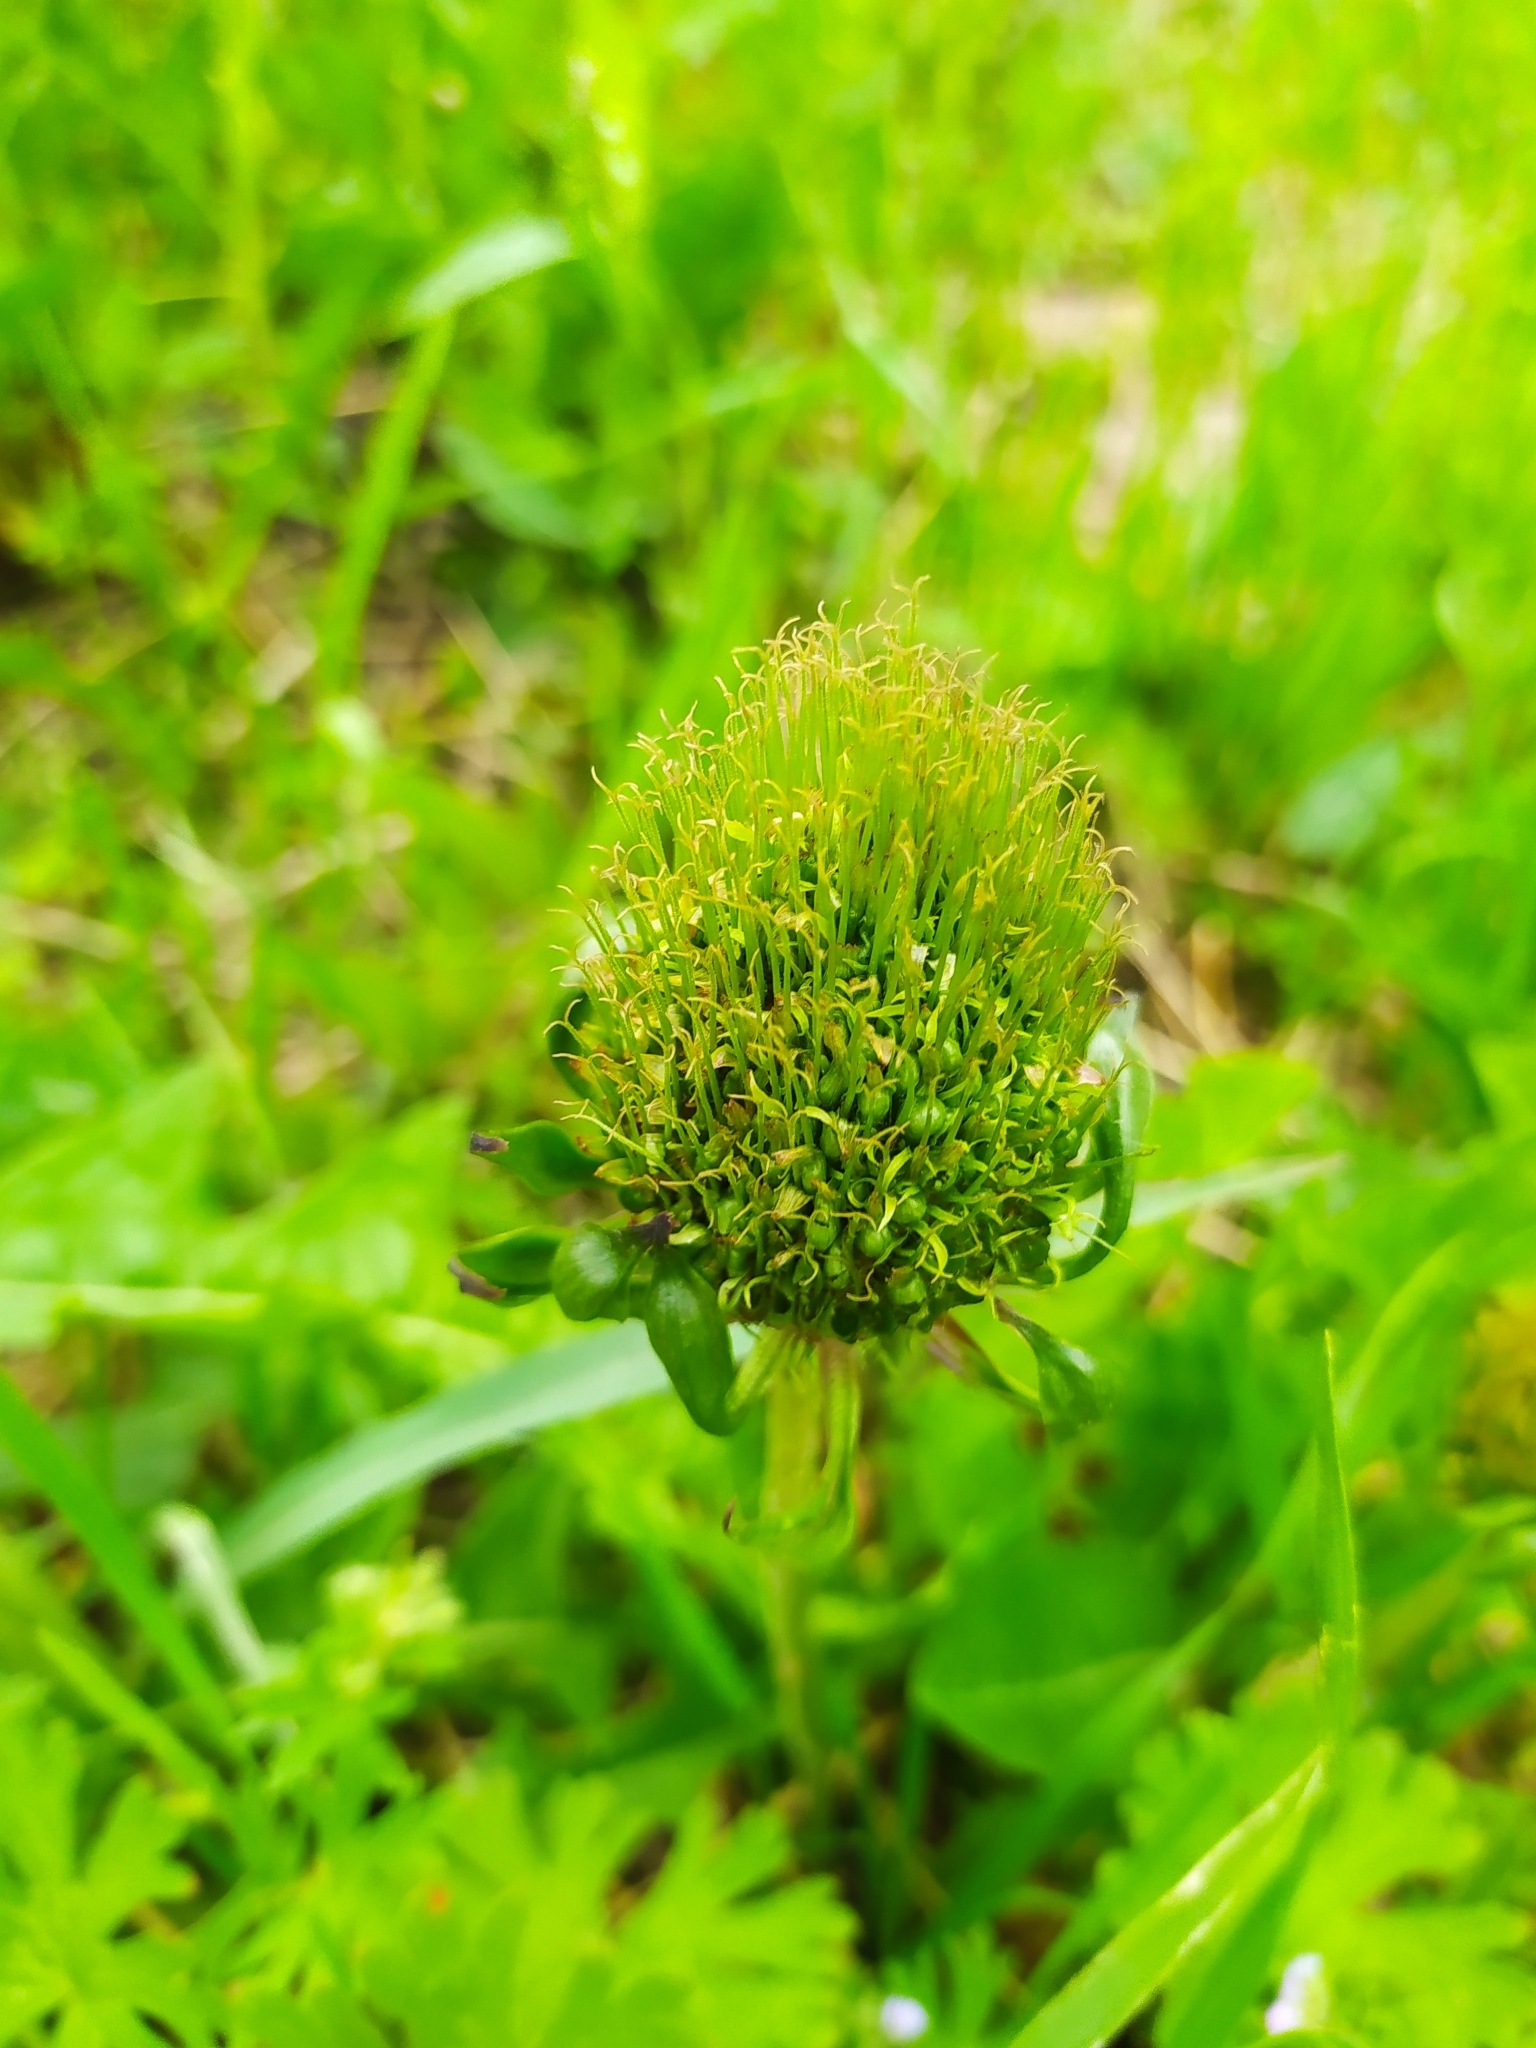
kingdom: Plantae
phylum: Tracheophyta
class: Magnoliopsida
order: Asterales
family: Asteraceae
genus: Taraxacum
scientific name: Taraxacum officinale
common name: Common dandelion
